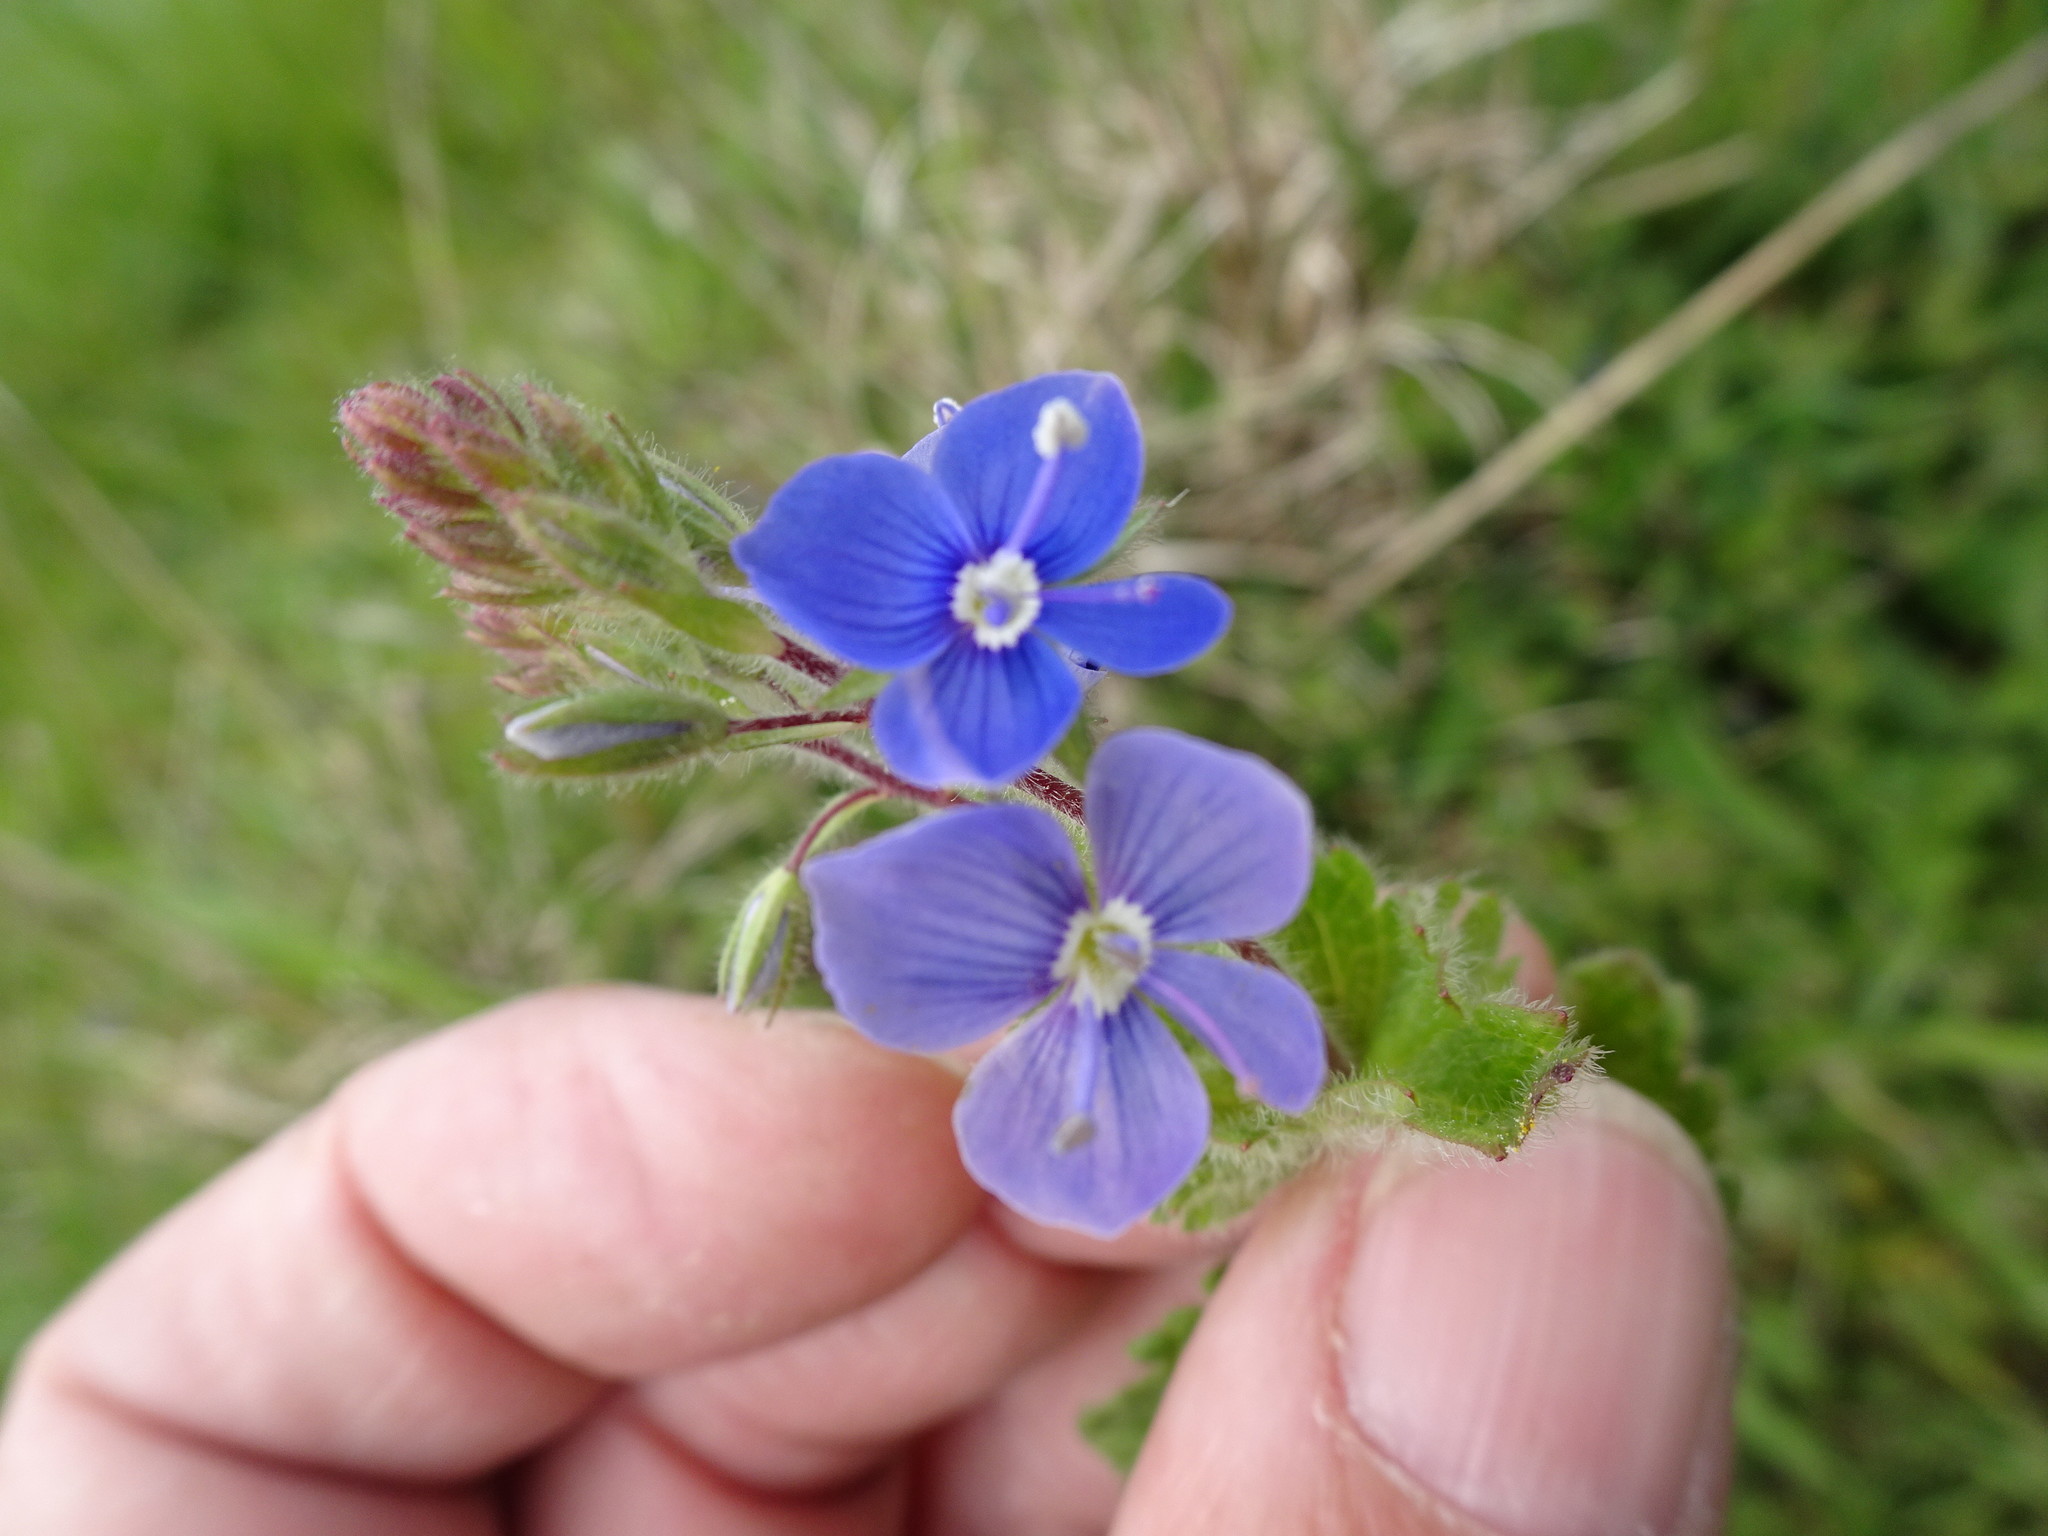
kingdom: Plantae
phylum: Tracheophyta
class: Magnoliopsida
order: Lamiales
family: Plantaginaceae
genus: Veronica
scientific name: Veronica chamaedrys
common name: Germander speedwell
